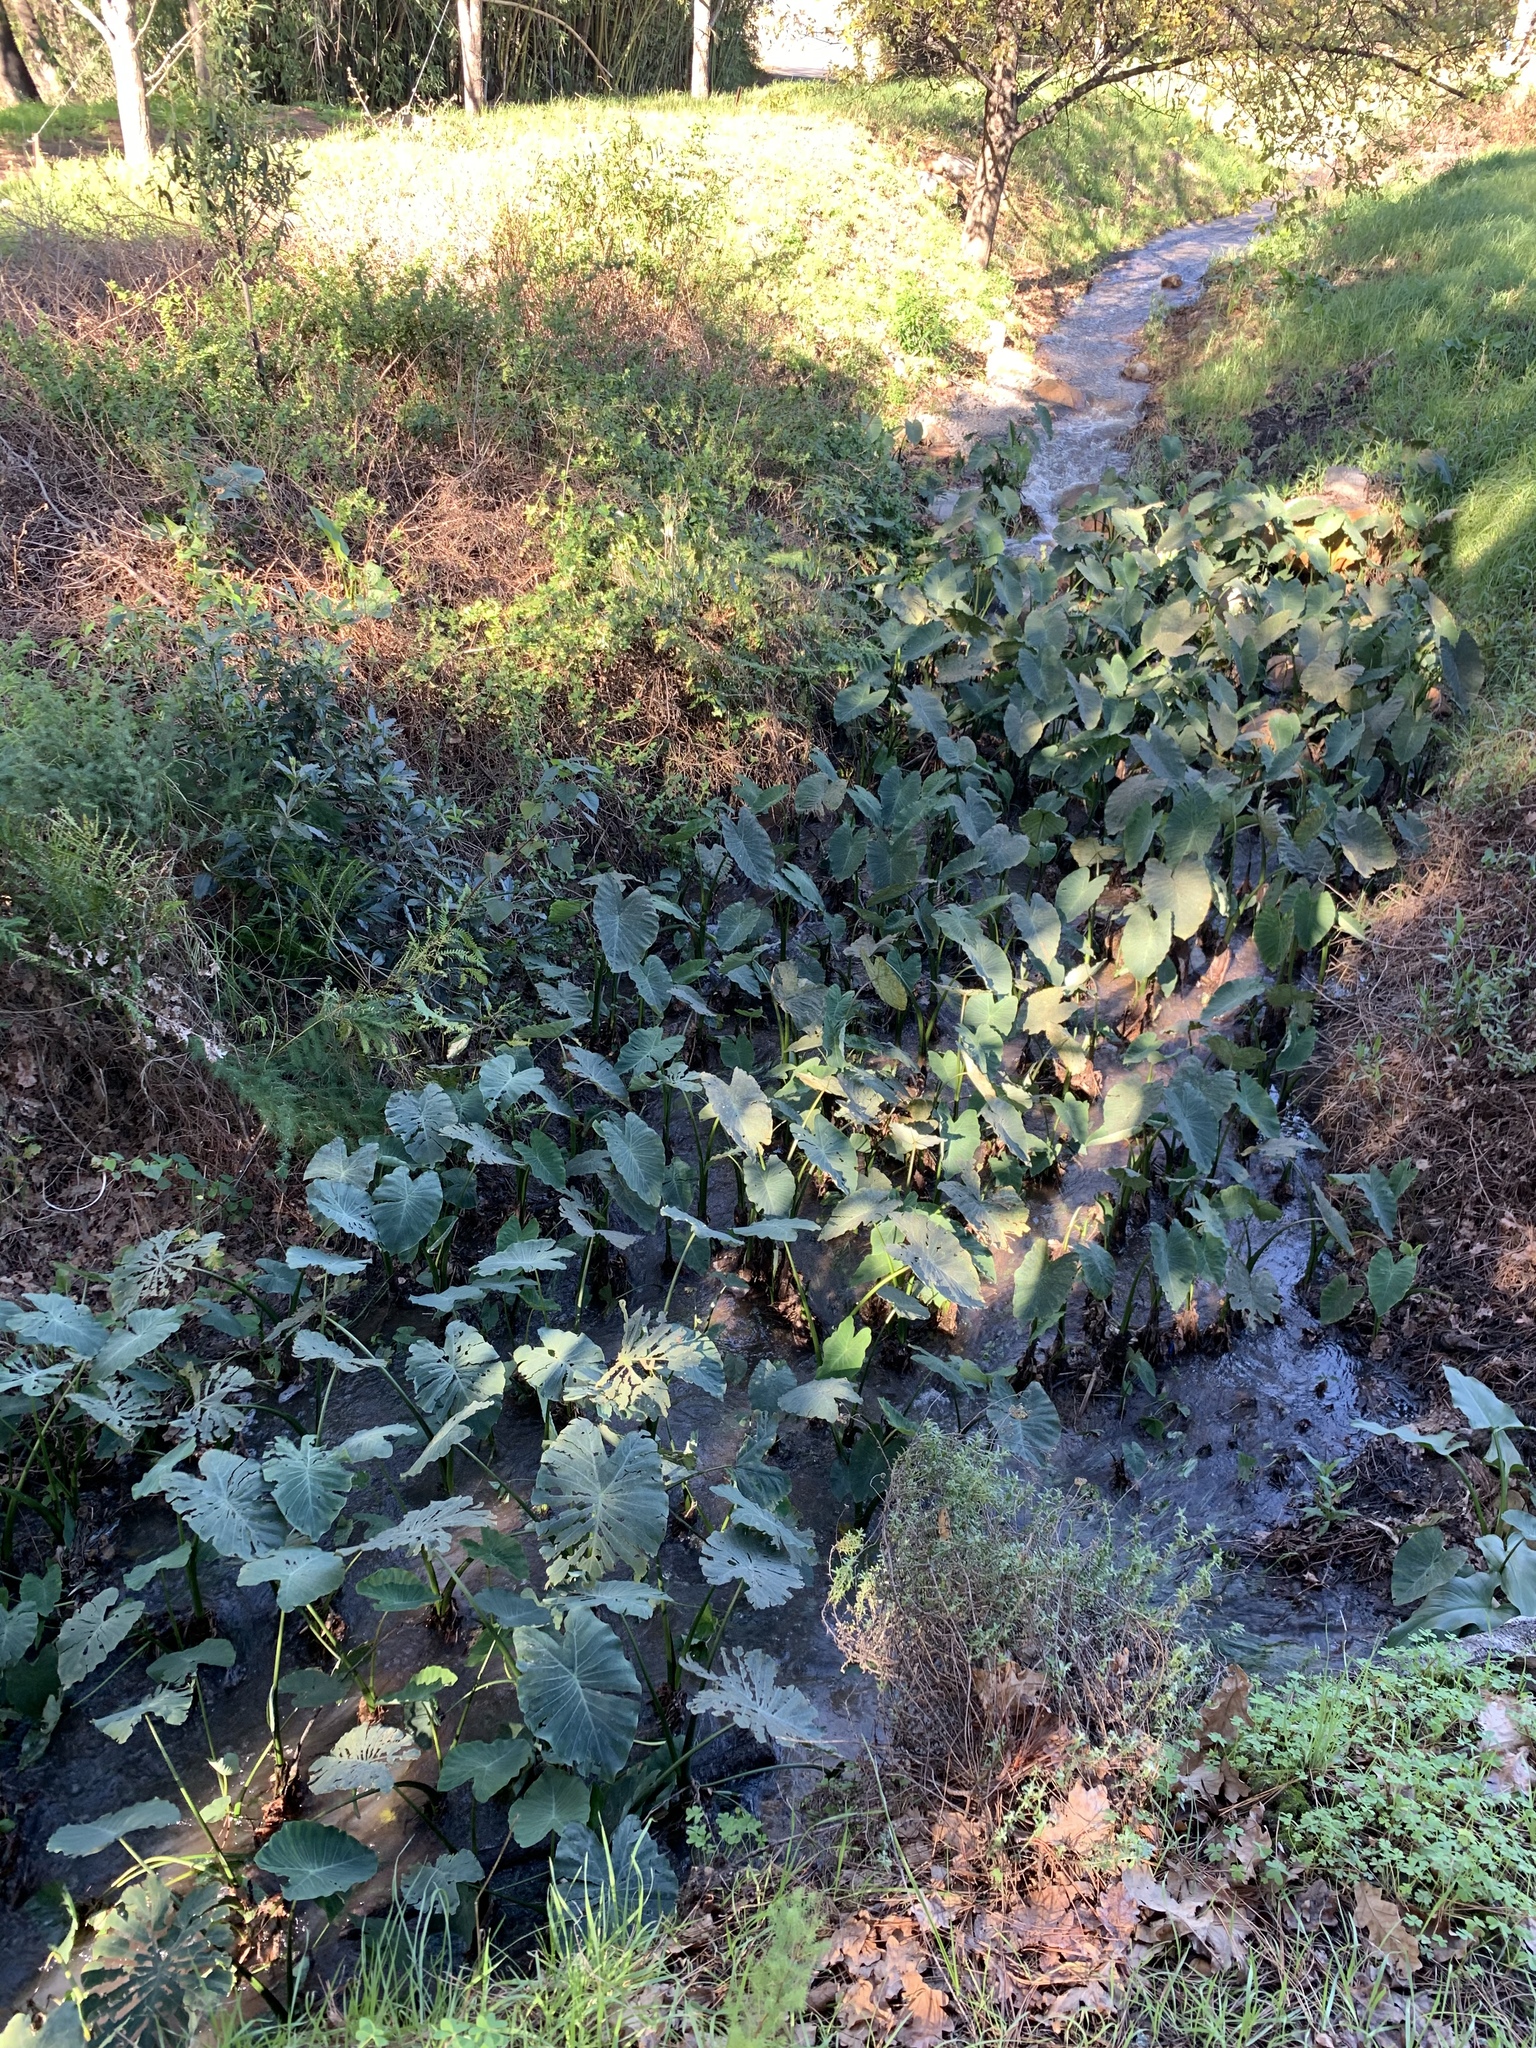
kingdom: Plantae
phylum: Tracheophyta
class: Liliopsida
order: Alismatales
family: Araceae
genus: Colocasia
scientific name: Colocasia esculenta
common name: Taro
